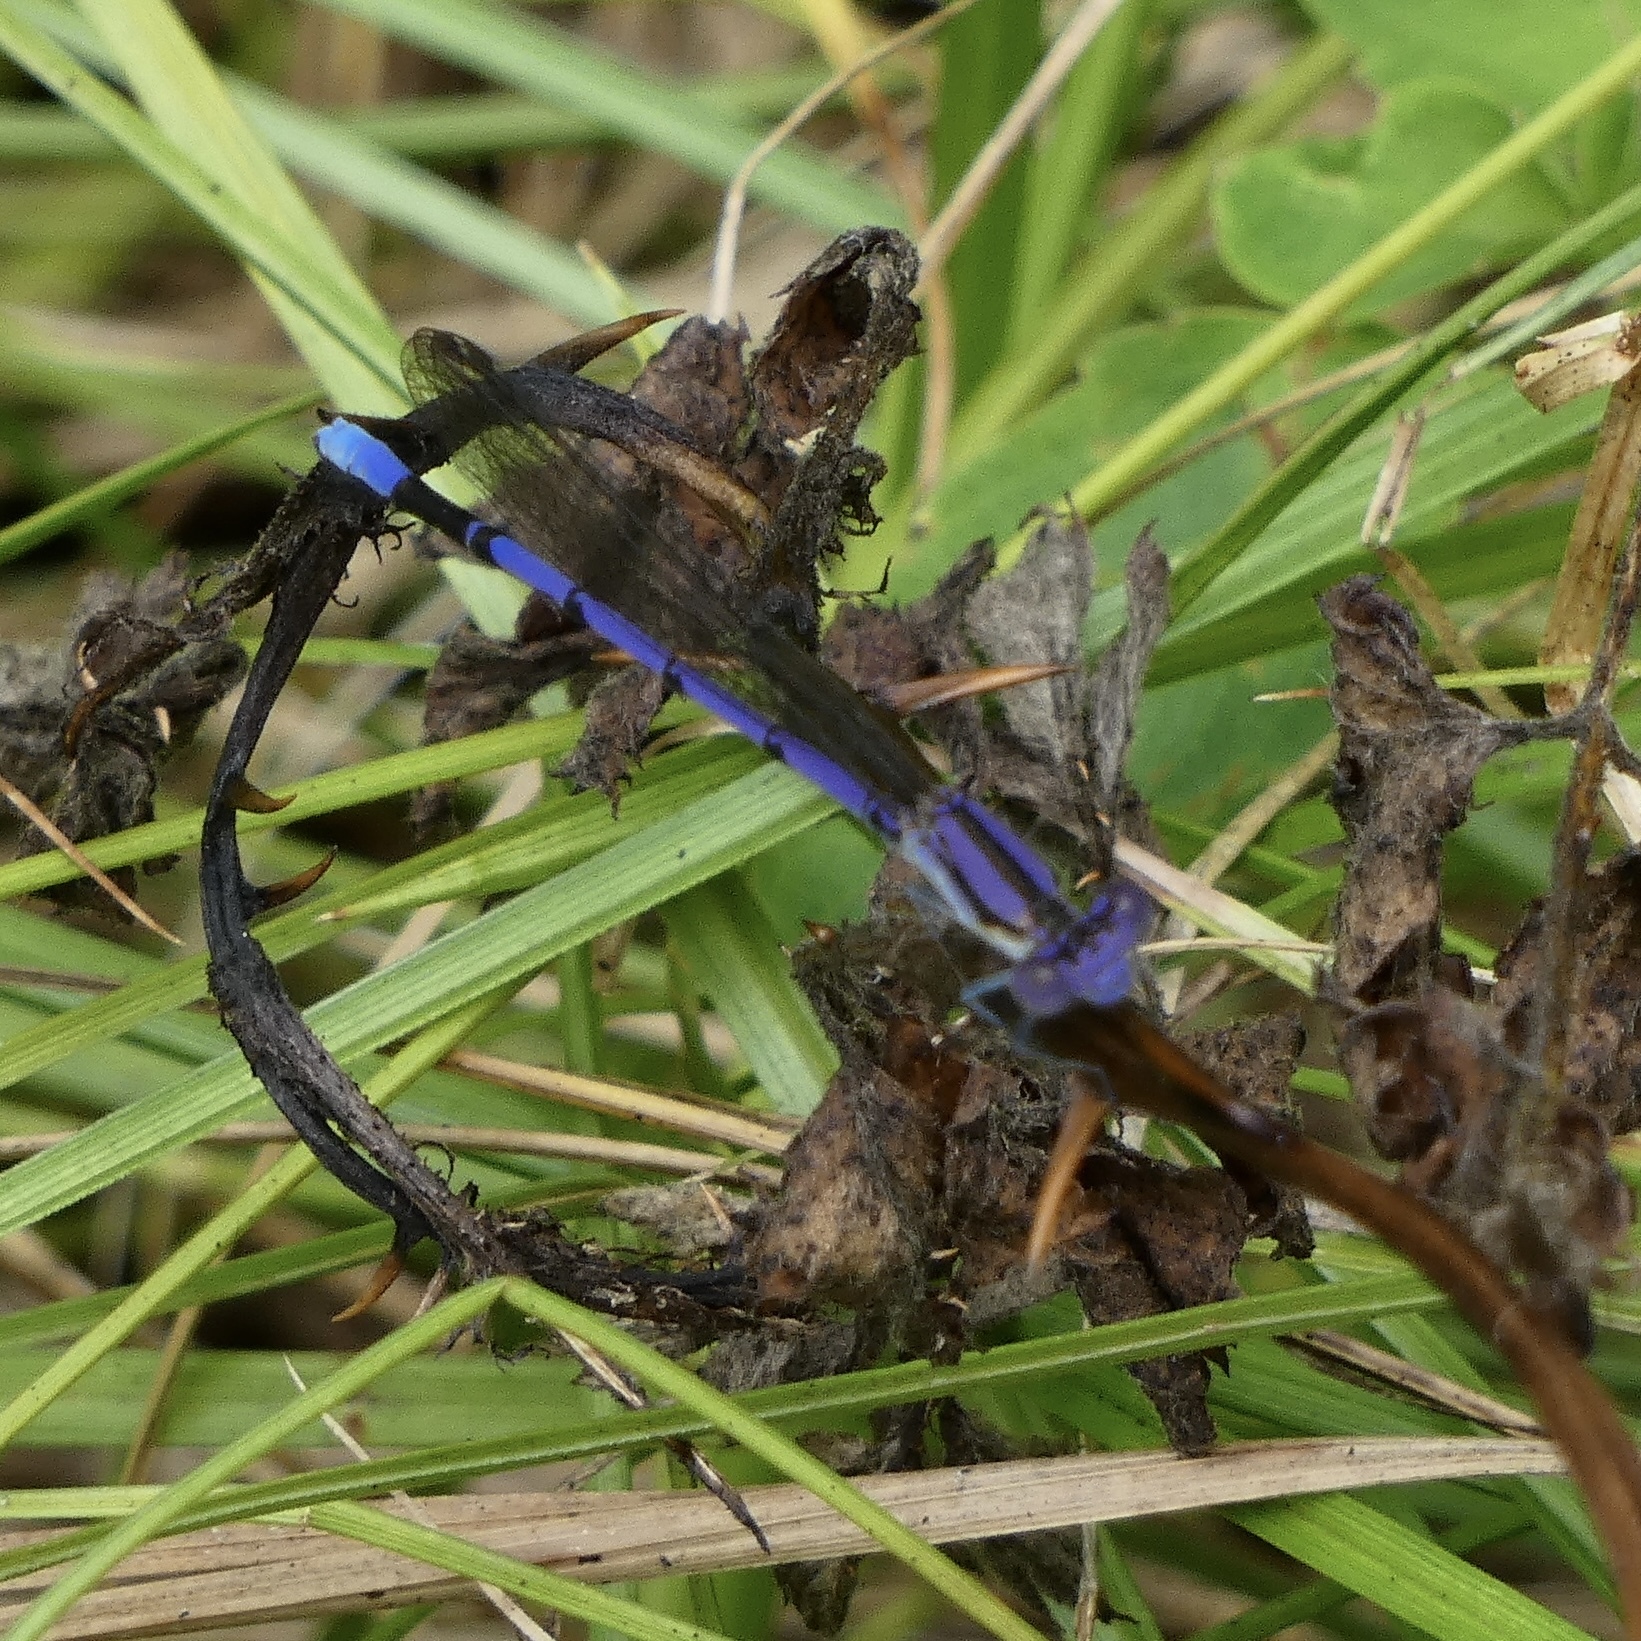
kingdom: Animalia
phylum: Arthropoda
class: Insecta
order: Odonata
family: Coenagrionidae
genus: Argia
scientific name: Argia fumipennis
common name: Variable dancer
